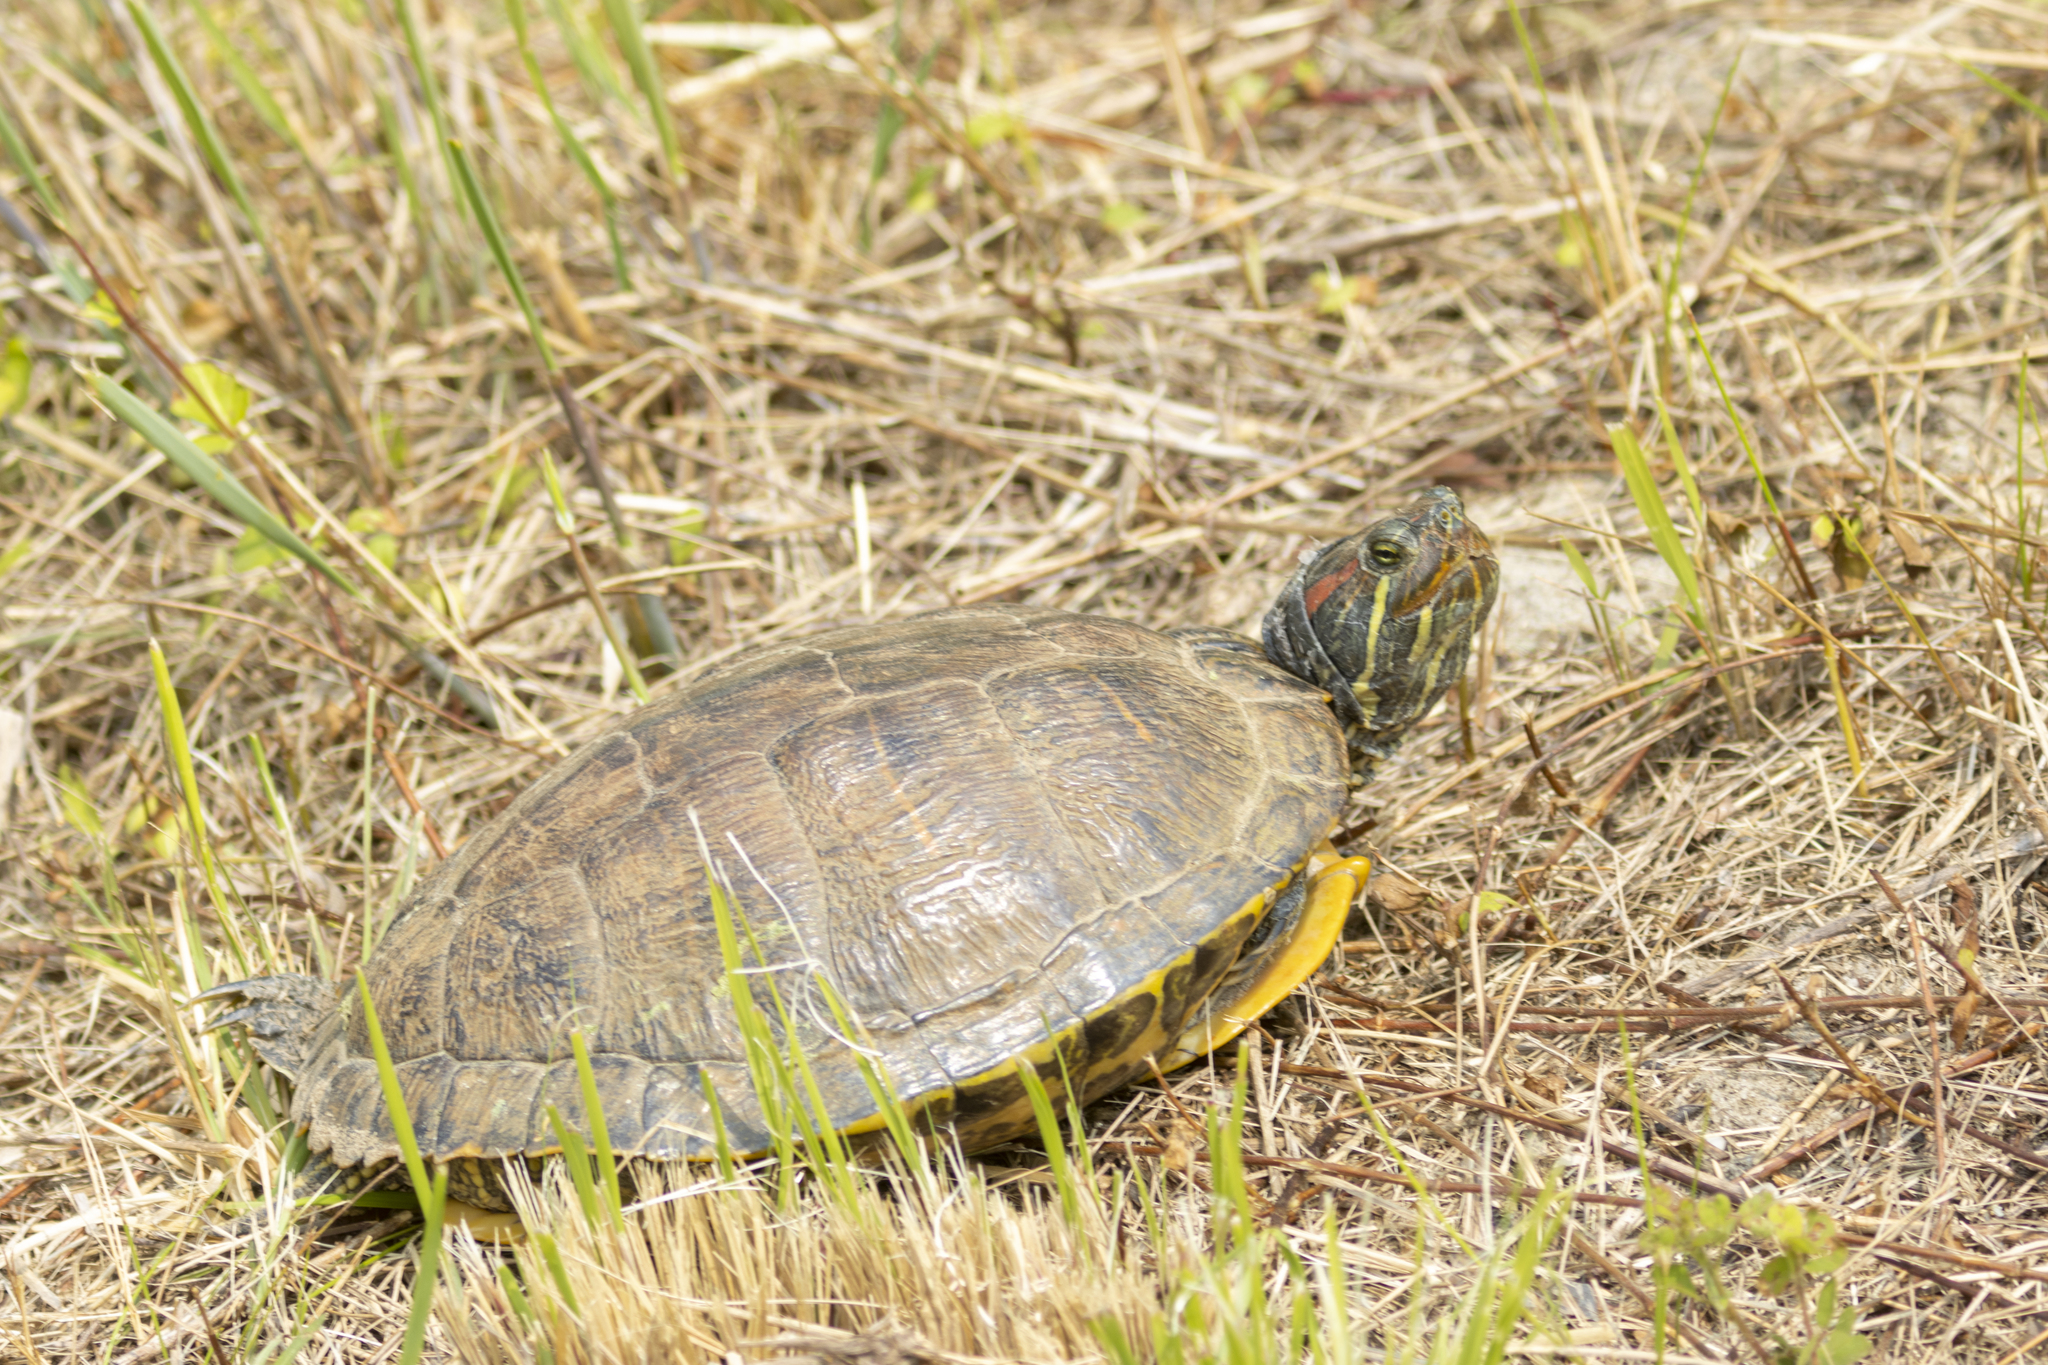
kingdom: Animalia
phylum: Chordata
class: Testudines
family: Emydidae
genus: Trachemys
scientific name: Trachemys scripta
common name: Slider
